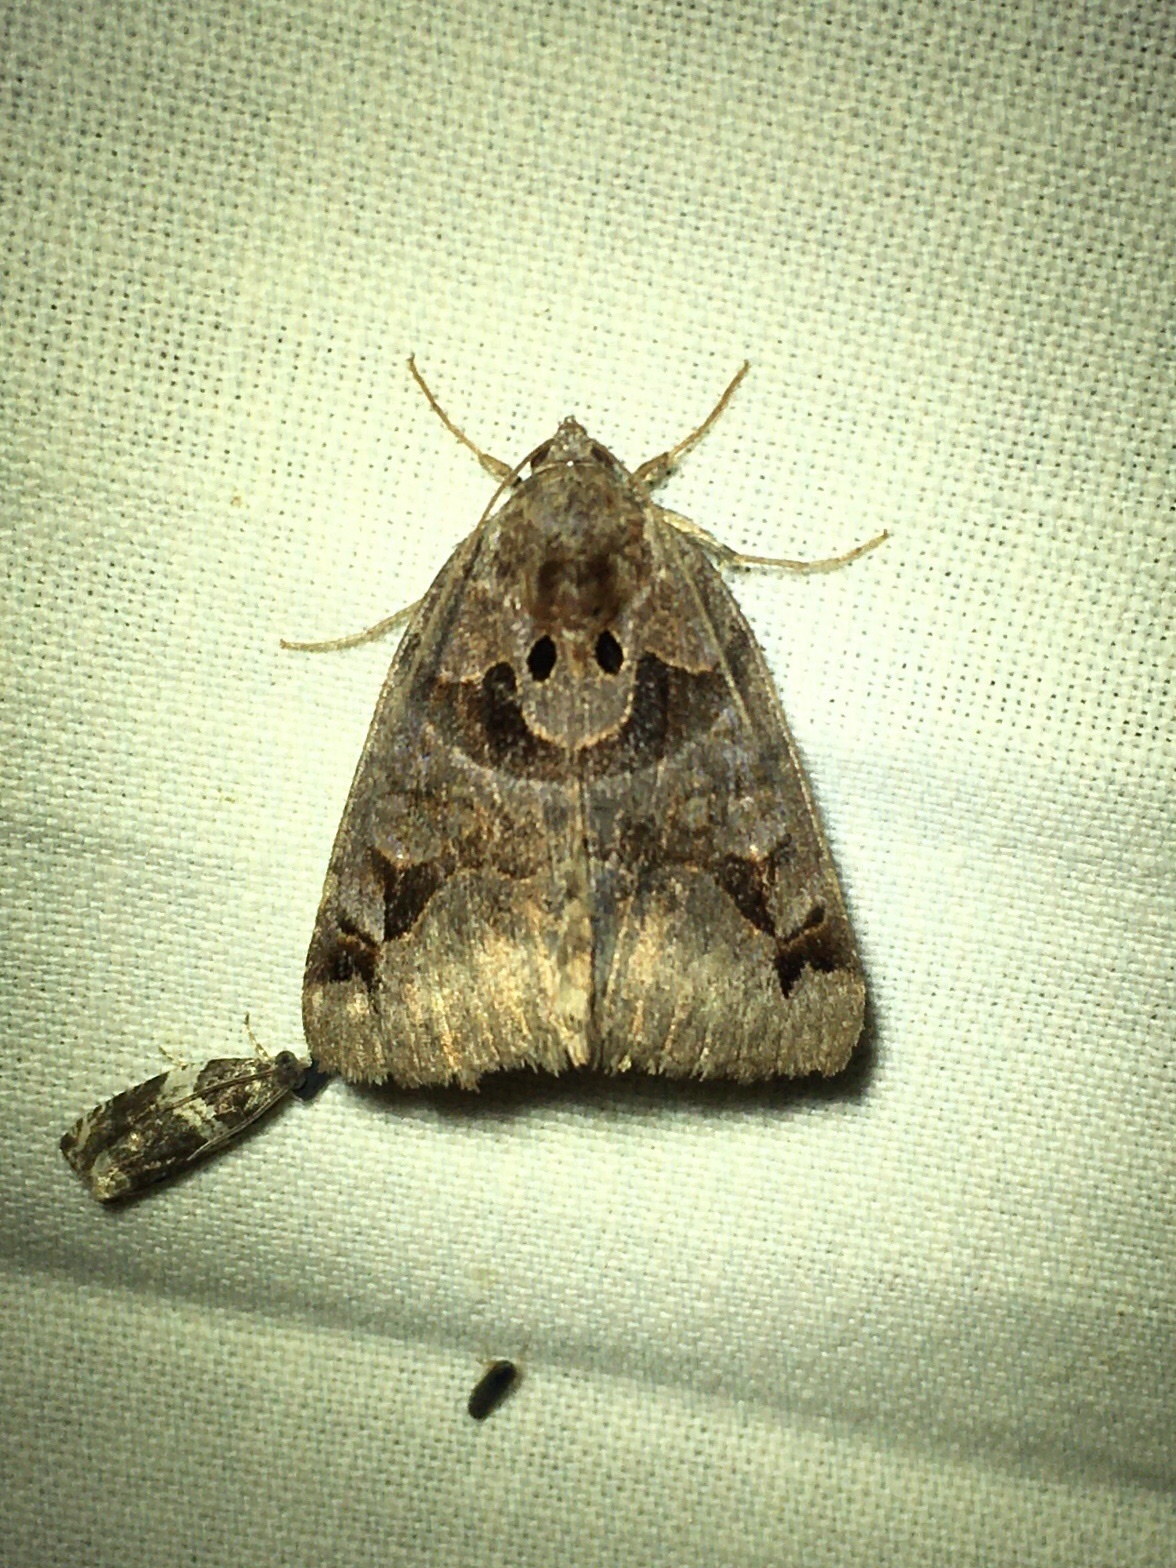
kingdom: Animalia
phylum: Arthropoda
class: Insecta
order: Lepidoptera
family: Erebidae
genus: Euclidia
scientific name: Euclidia cuspidea
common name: Toothed somberwing
